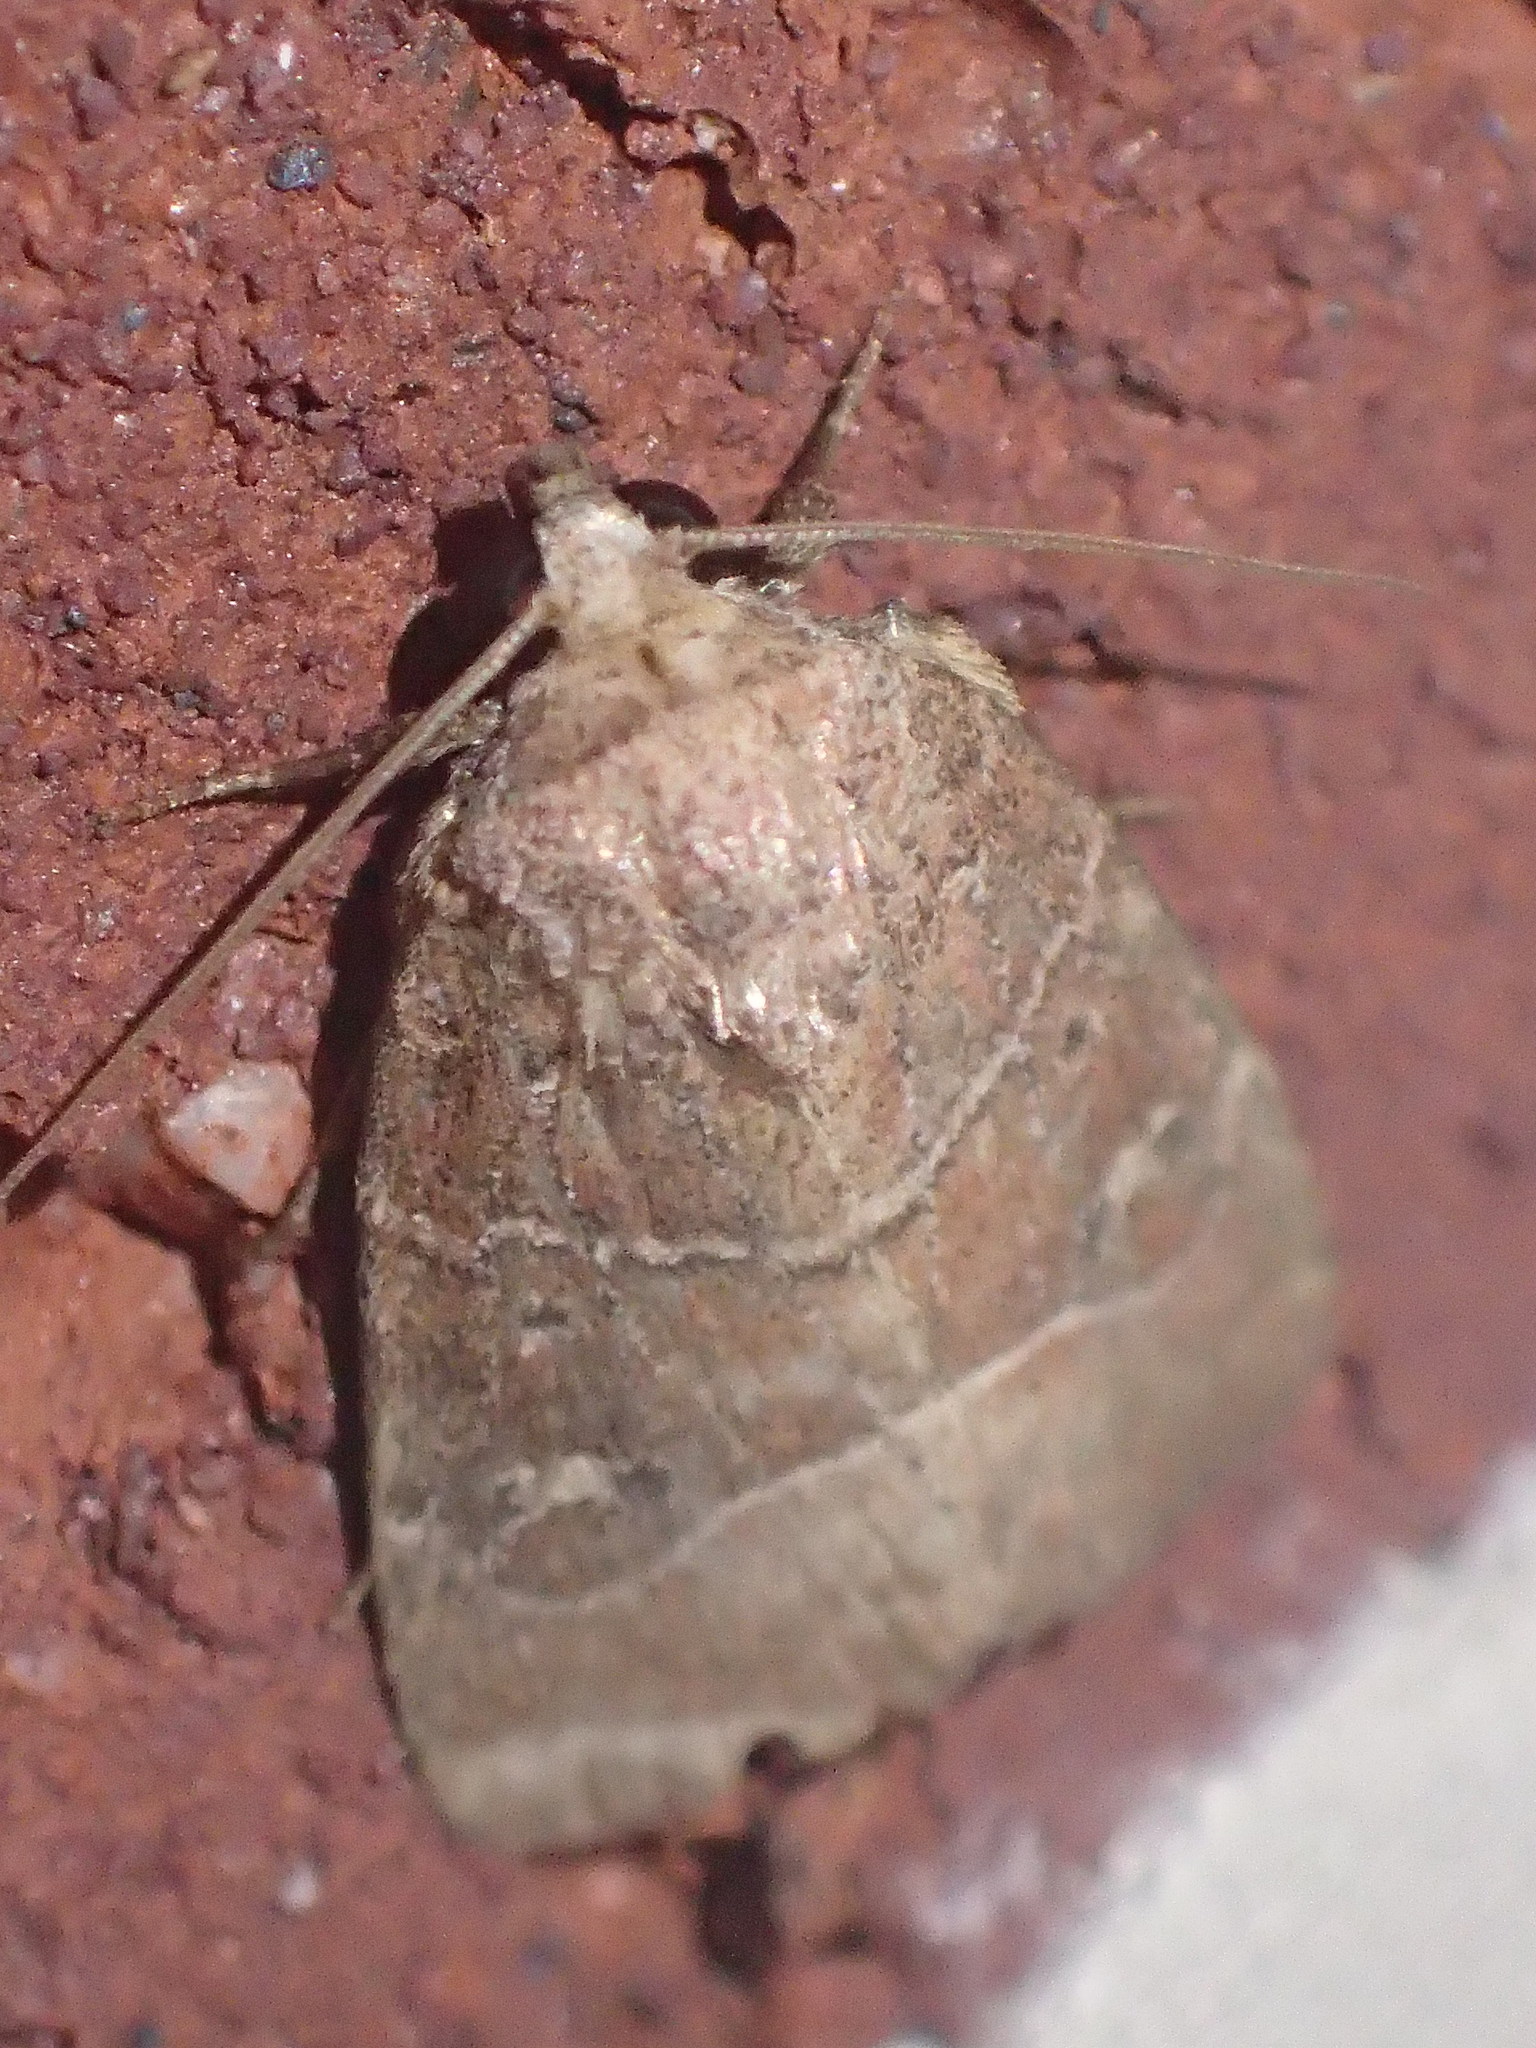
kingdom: Animalia
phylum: Arthropoda
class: Insecta
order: Lepidoptera
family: Noctuidae
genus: Elaphria
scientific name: Elaphria grata
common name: Grateful midget moth
